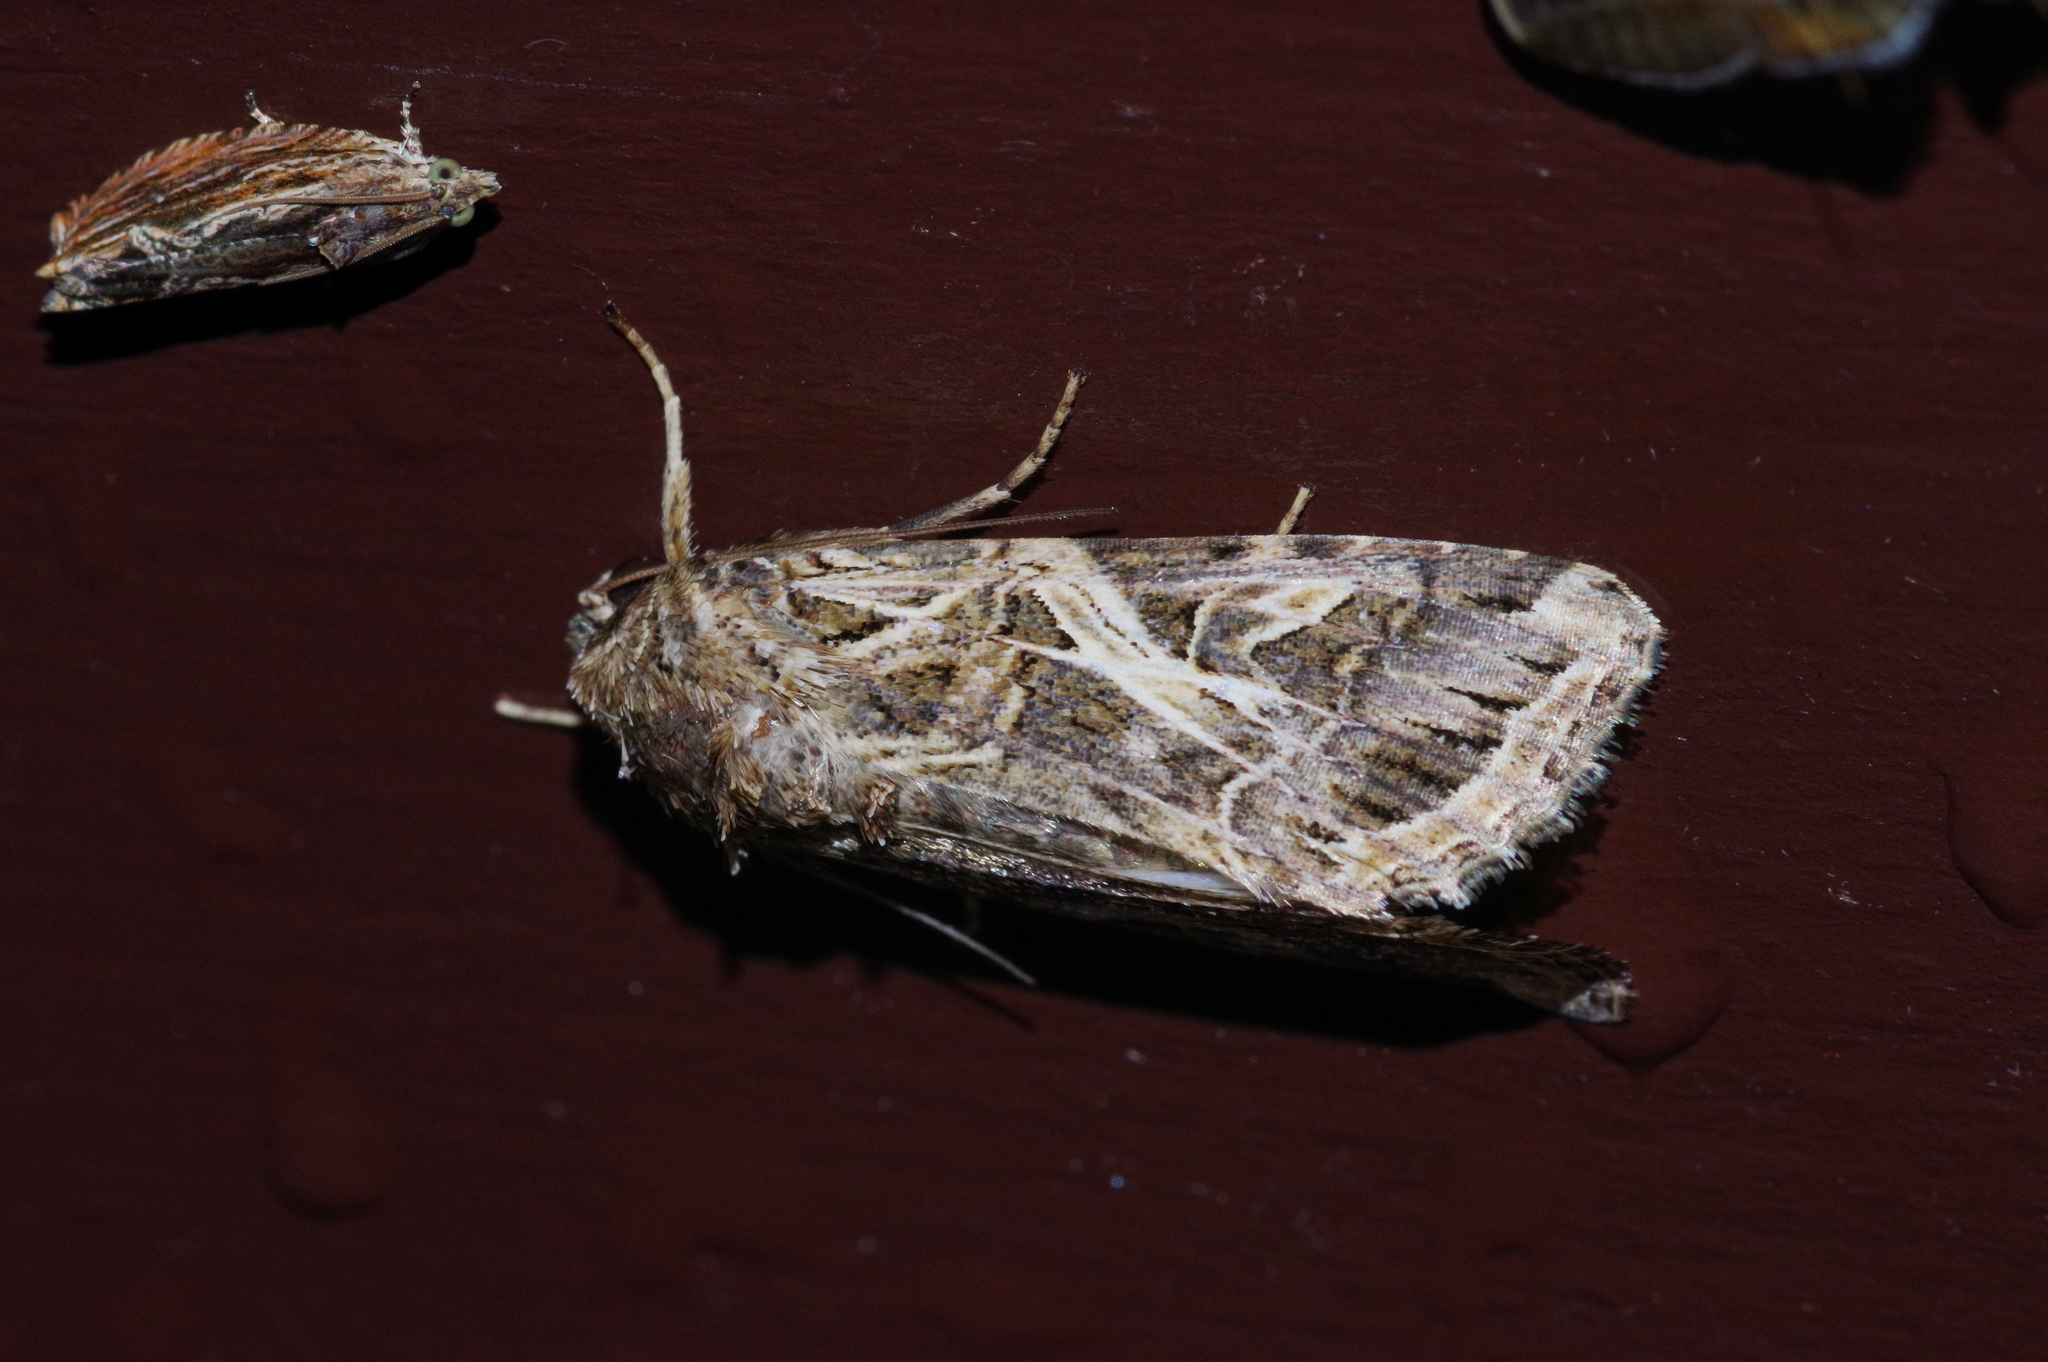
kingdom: Animalia
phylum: Arthropoda
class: Insecta
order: Lepidoptera
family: Noctuidae
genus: Spodoptera
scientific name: Spodoptera litura
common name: Asian cotton leafworm
